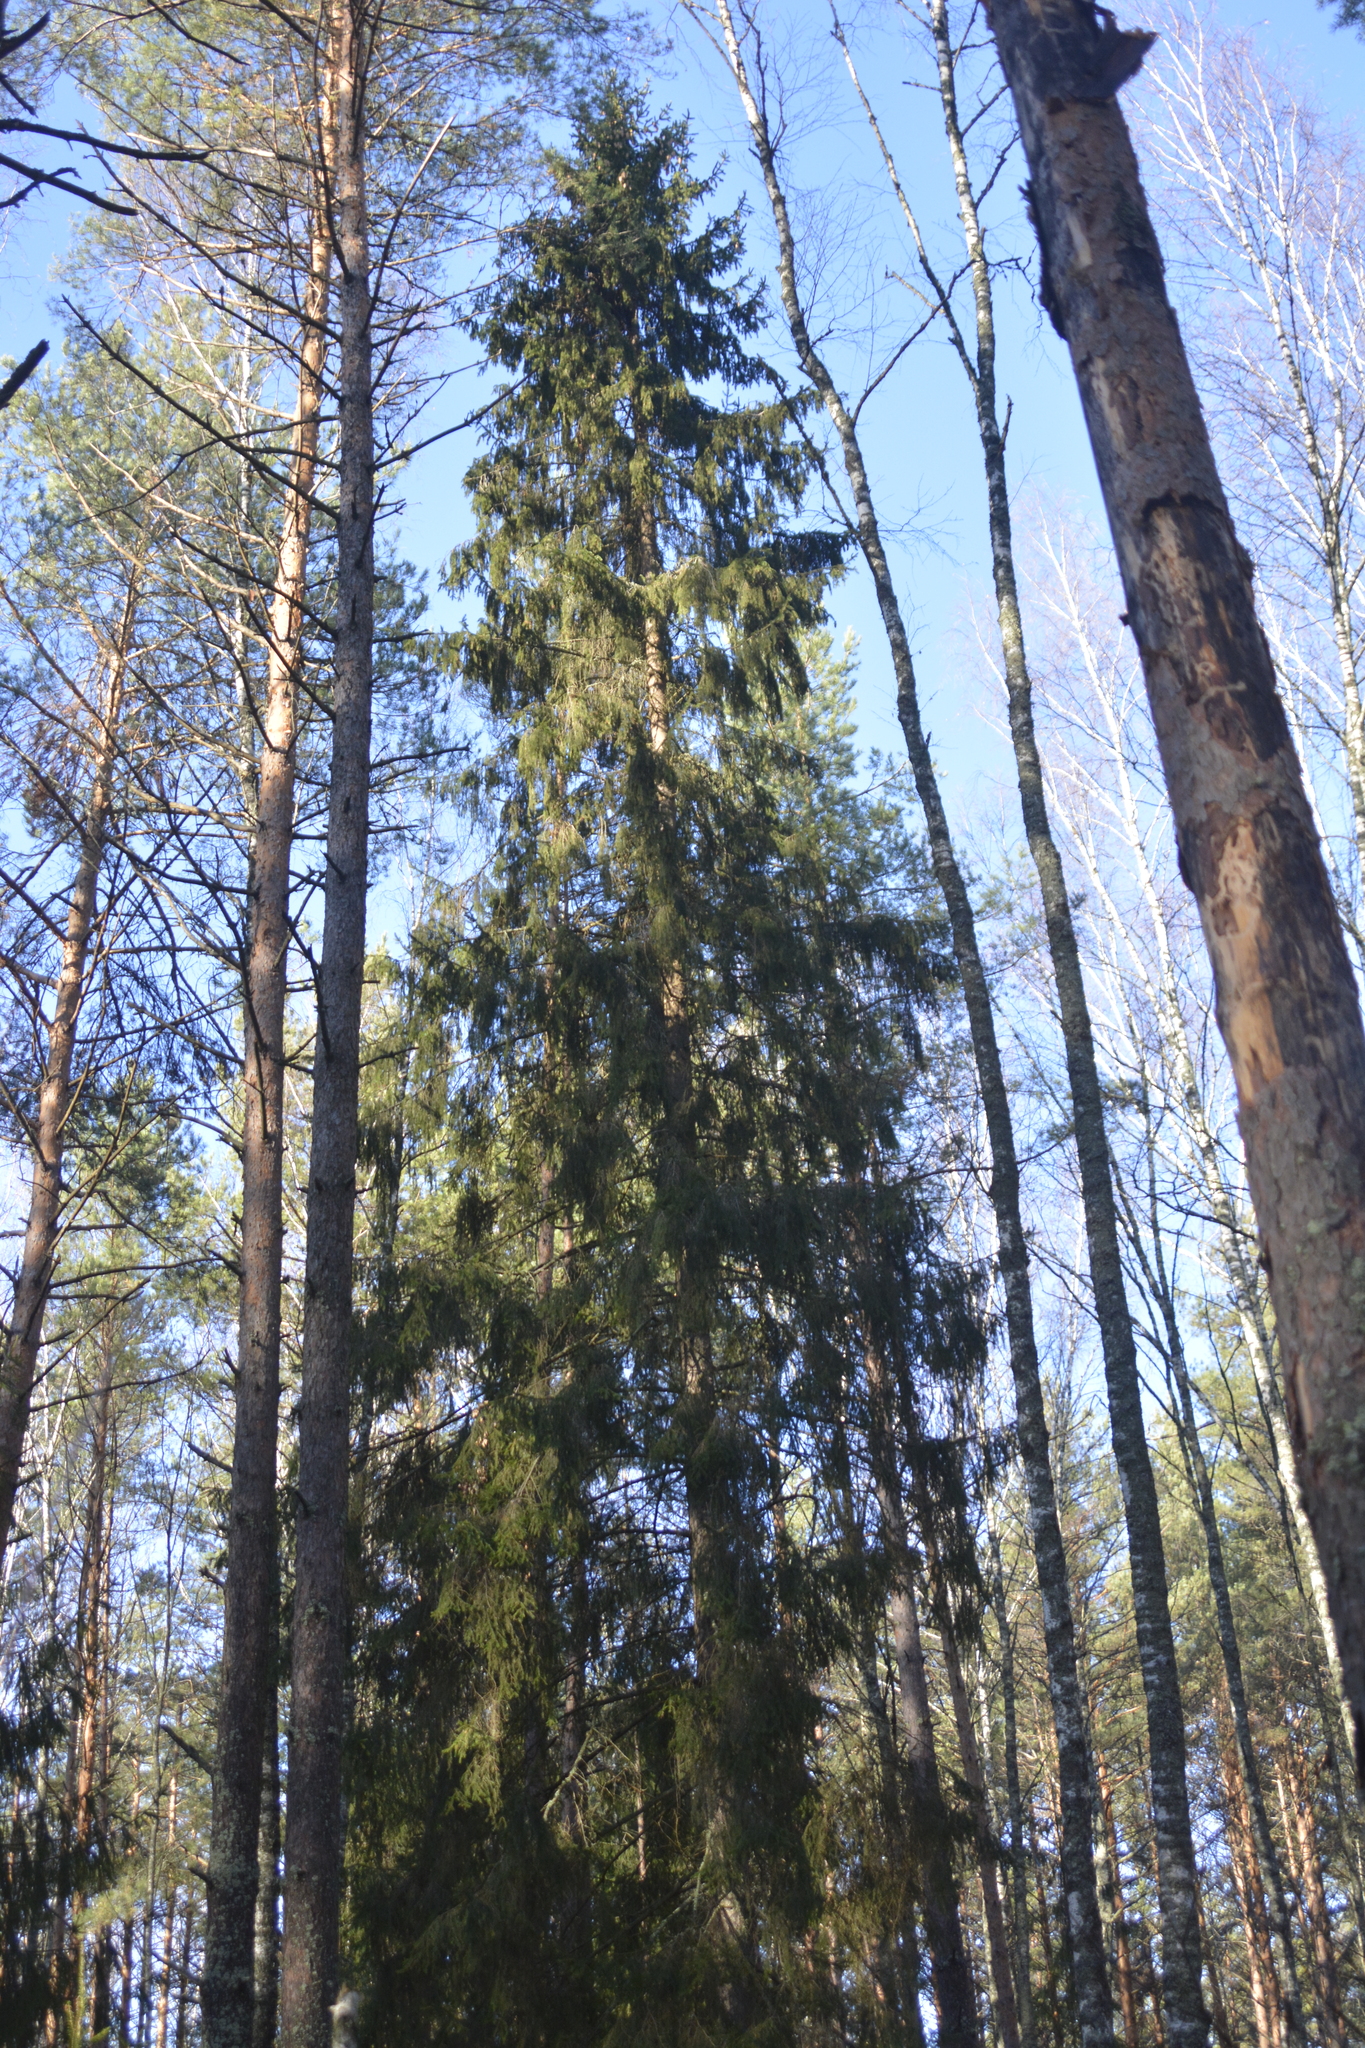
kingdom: Plantae
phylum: Tracheophyta
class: Pinopsida
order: Pinales
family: Pinaceae
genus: Picea
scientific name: Picea abies
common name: Norway spruce
